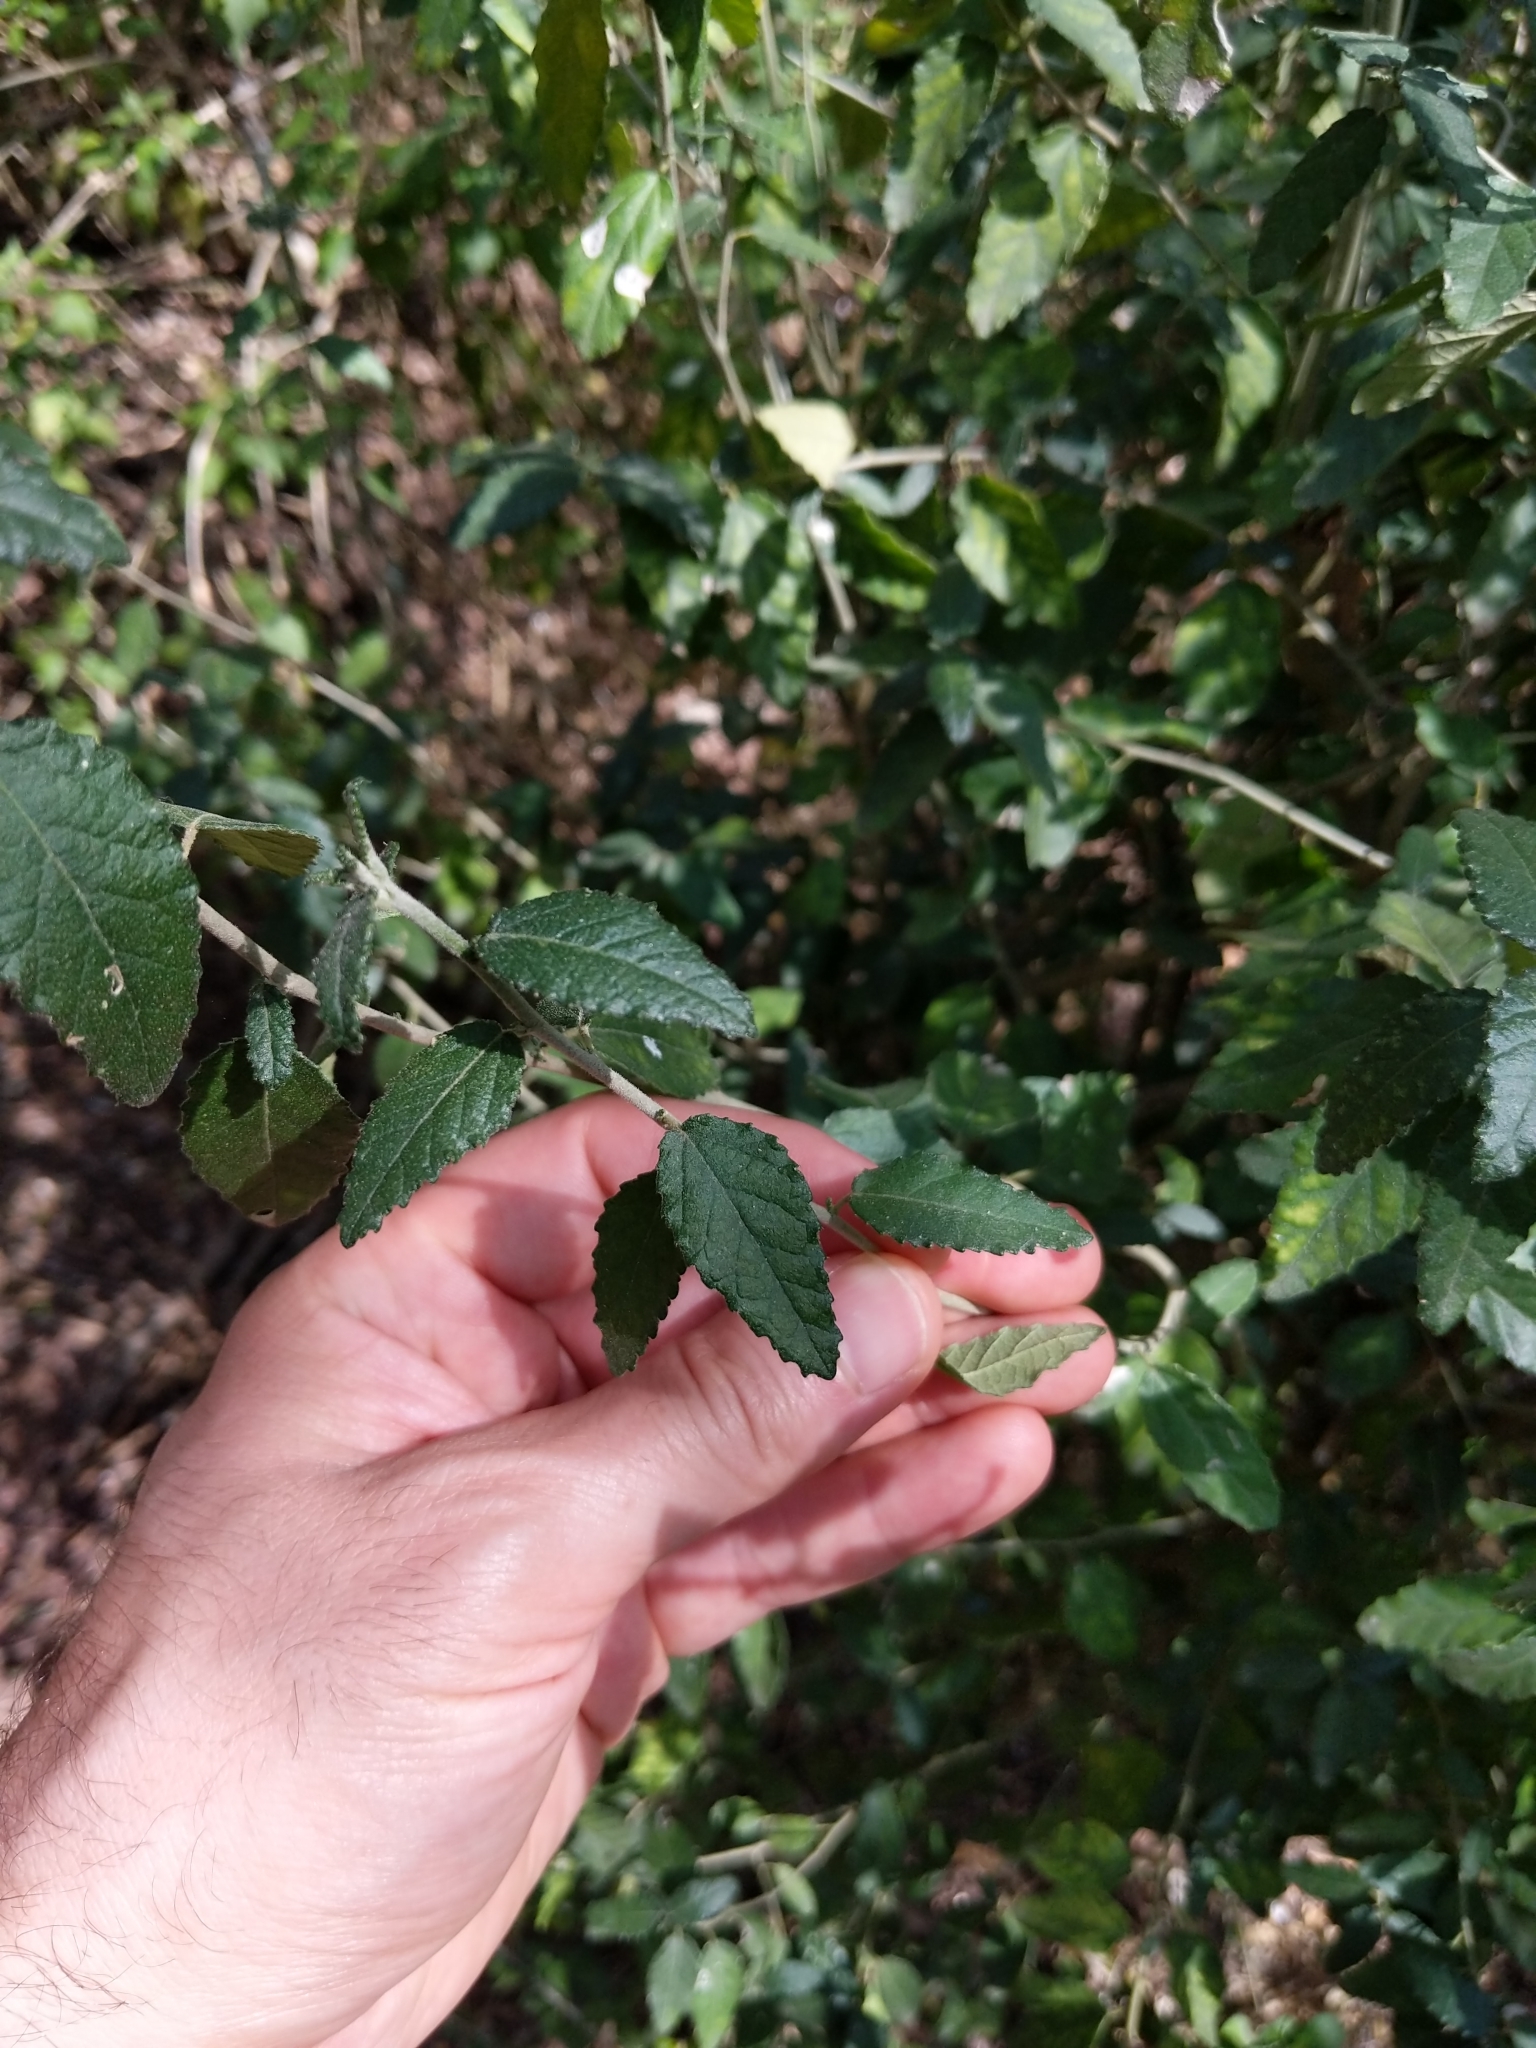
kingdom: Plantae
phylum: Tracheophyta
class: Magnoliopsida
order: Malpighiales
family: Euphorbiaceae
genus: Bernardia
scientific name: Bernardia myricifolia
